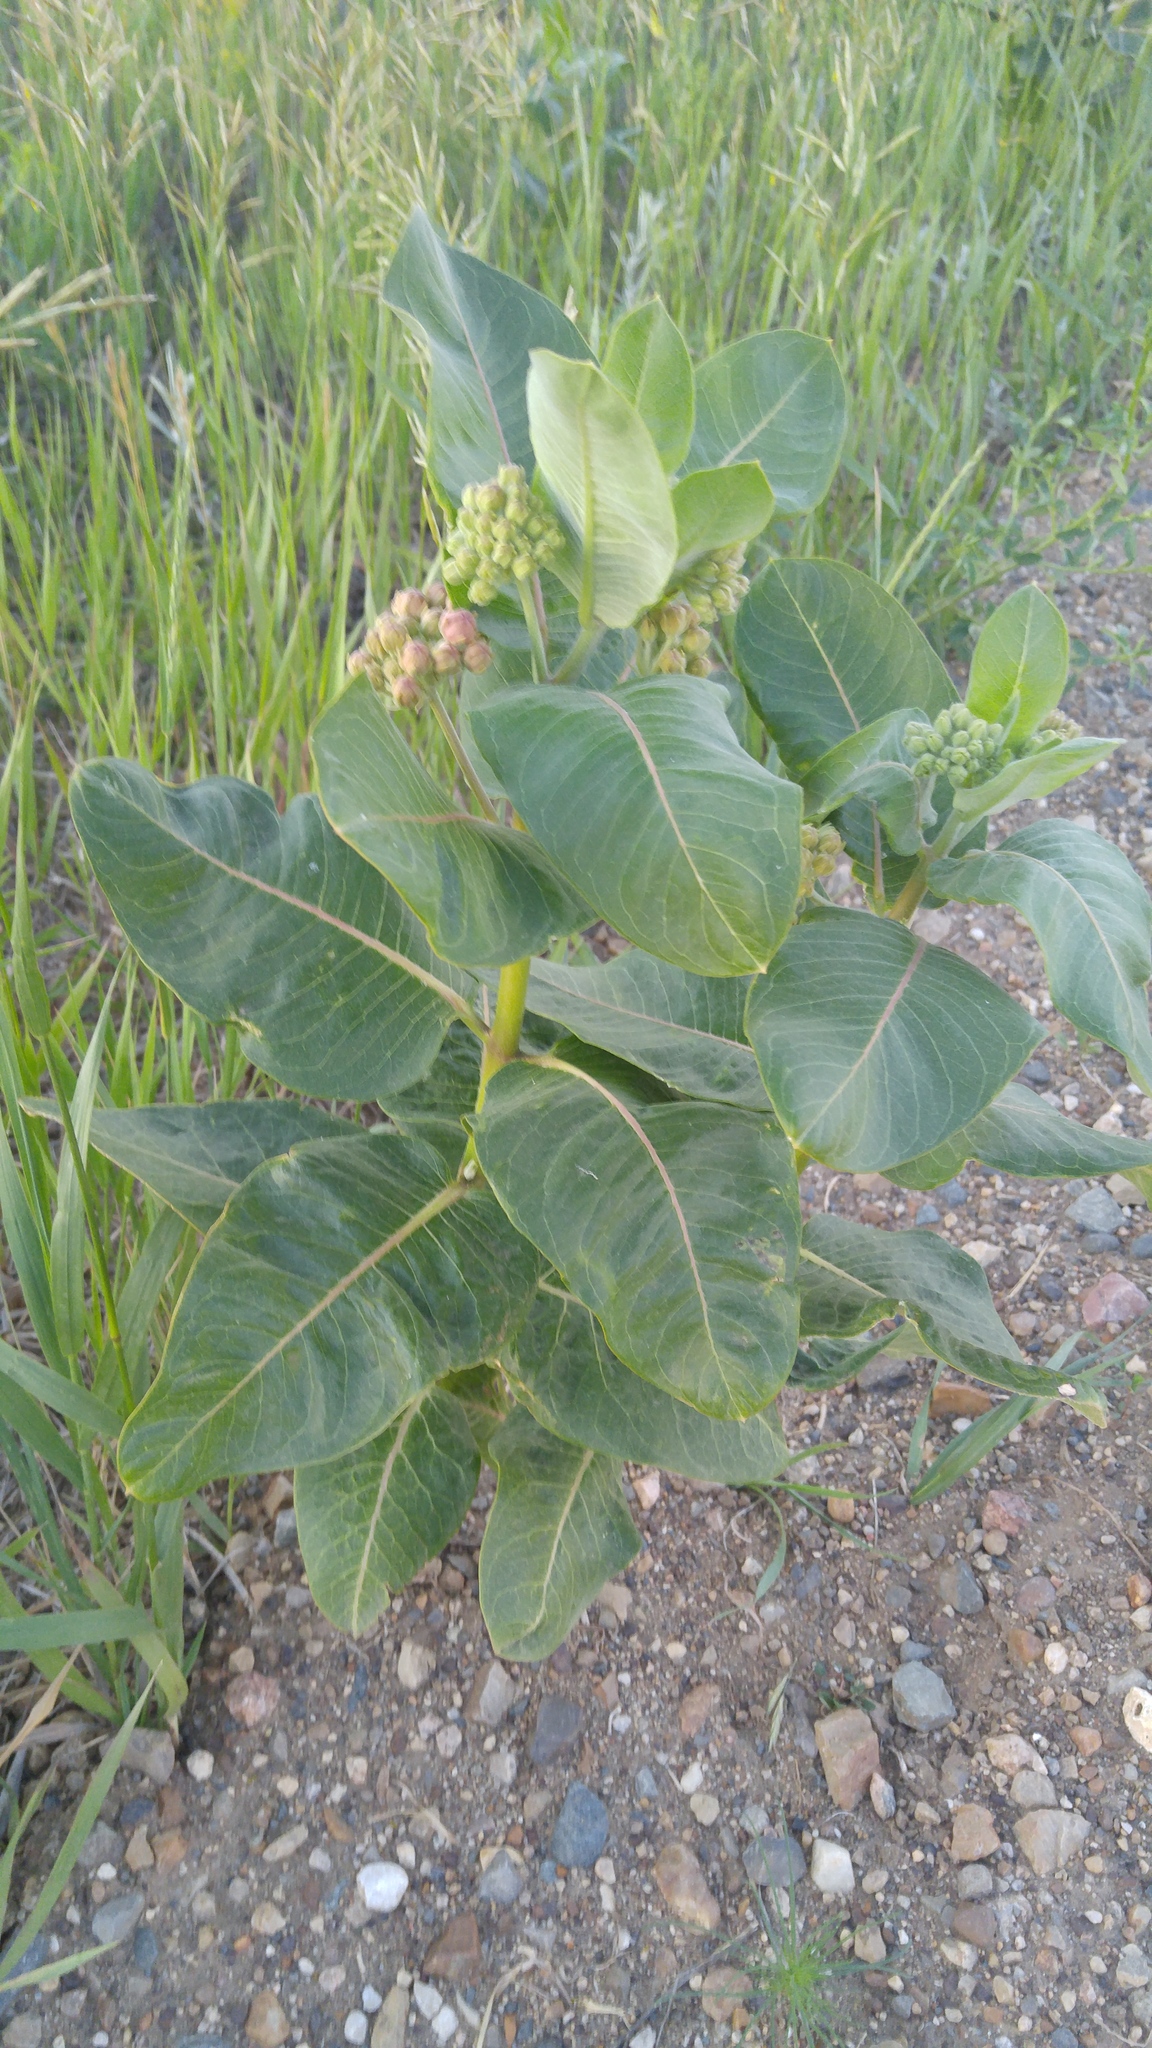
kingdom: Plantae
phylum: Tracheophyta
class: Magnoliopsida
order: Gentianales
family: Apocynaceae
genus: Asclepias
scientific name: Asclepias speciosa
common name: Showy milkweed
